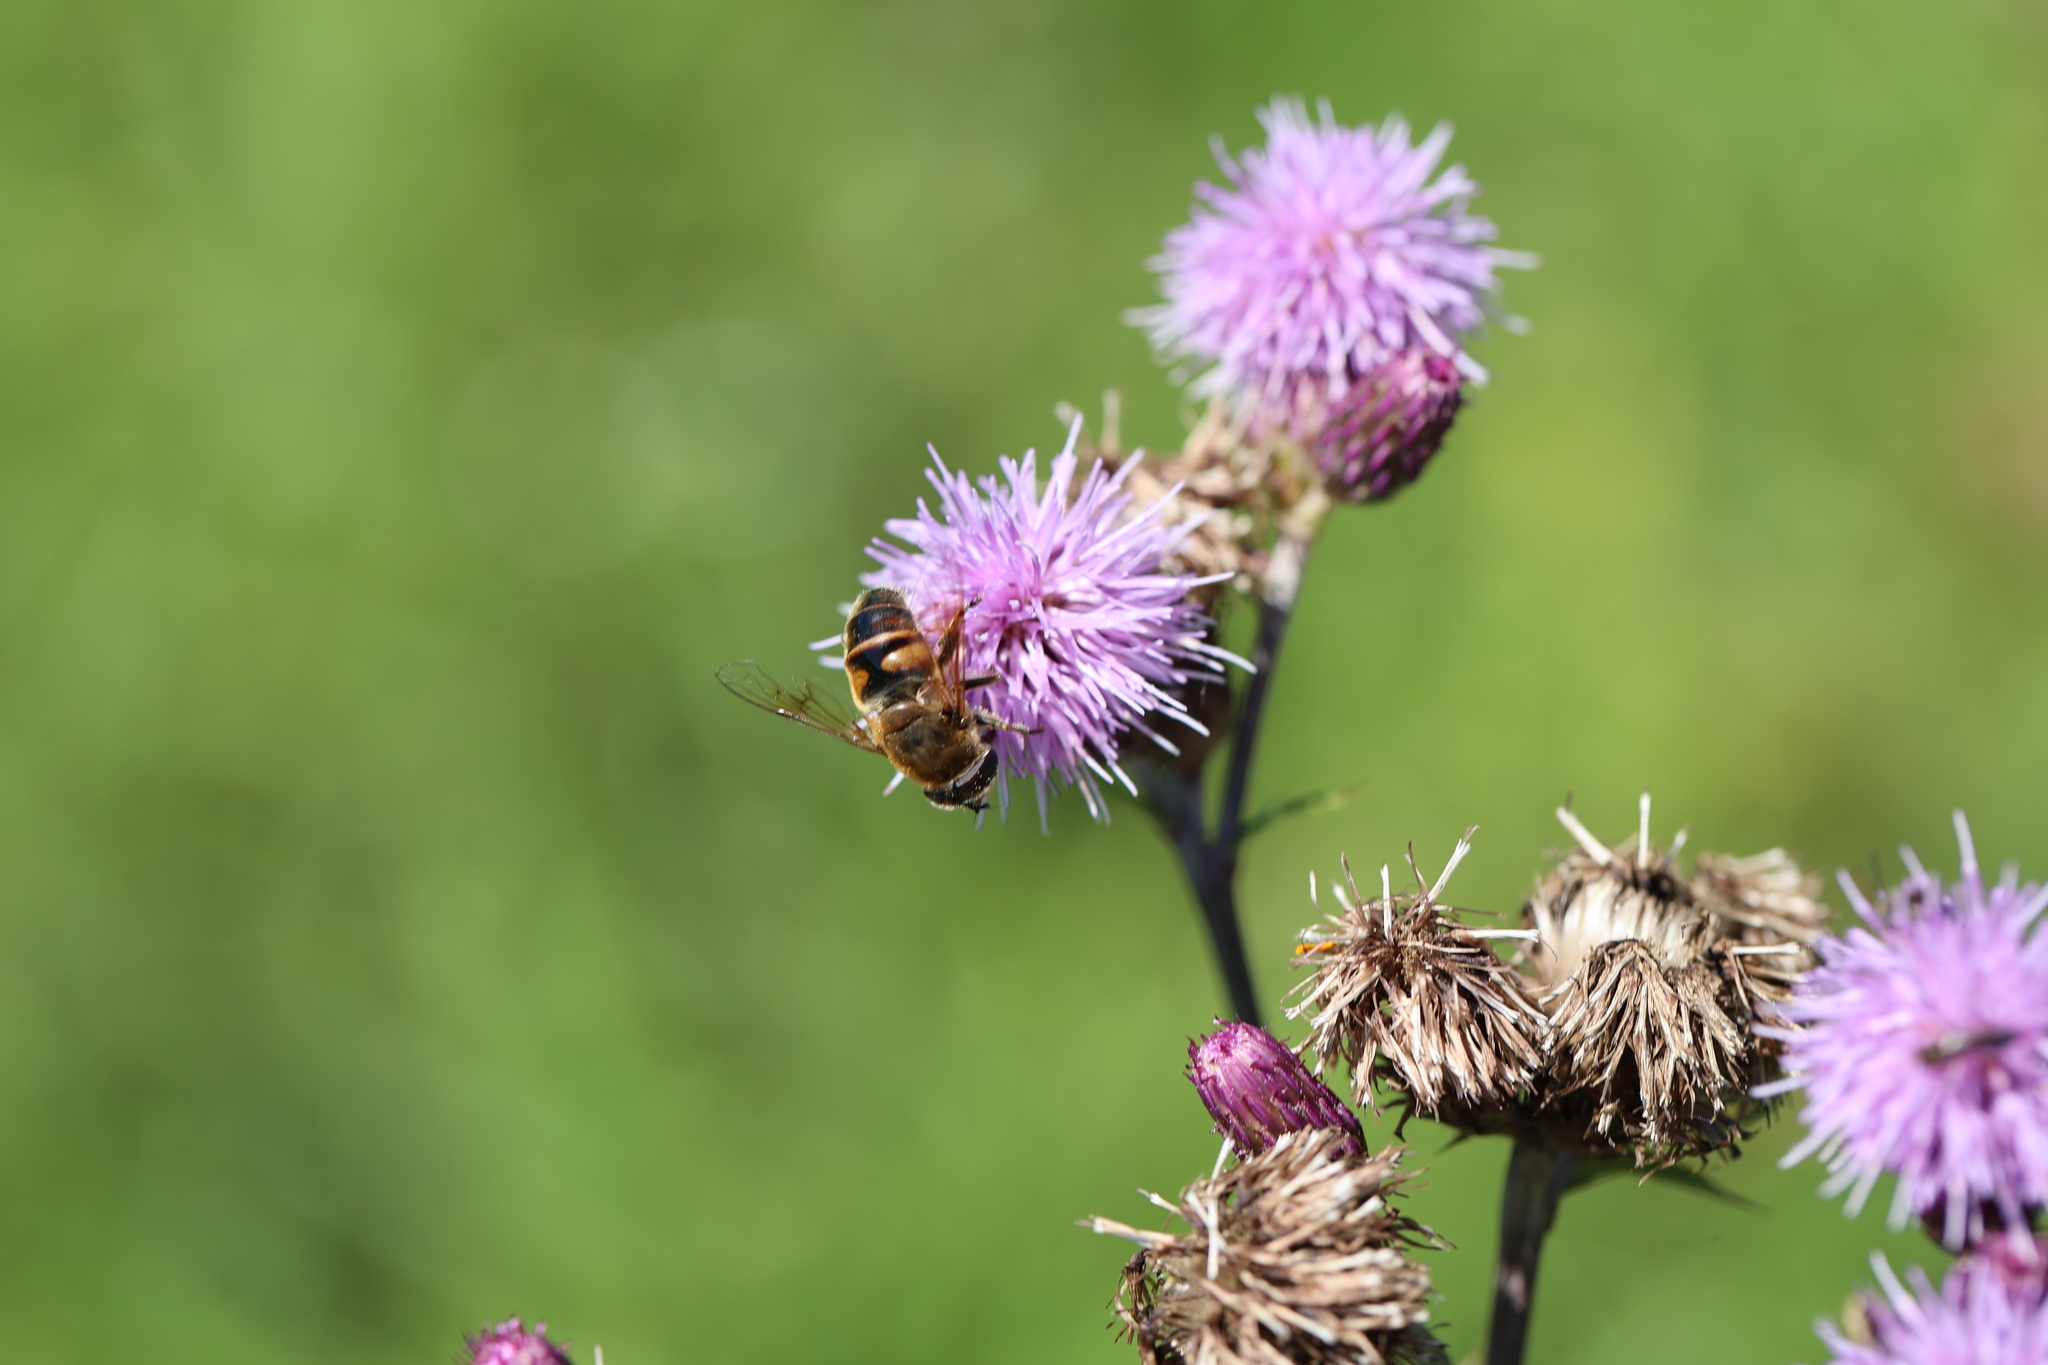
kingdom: Animalia
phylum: Arthropoda
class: Insecta
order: Diptera
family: Syrphidae
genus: Eristalis
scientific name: Eristalis tenax
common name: Drone fly
